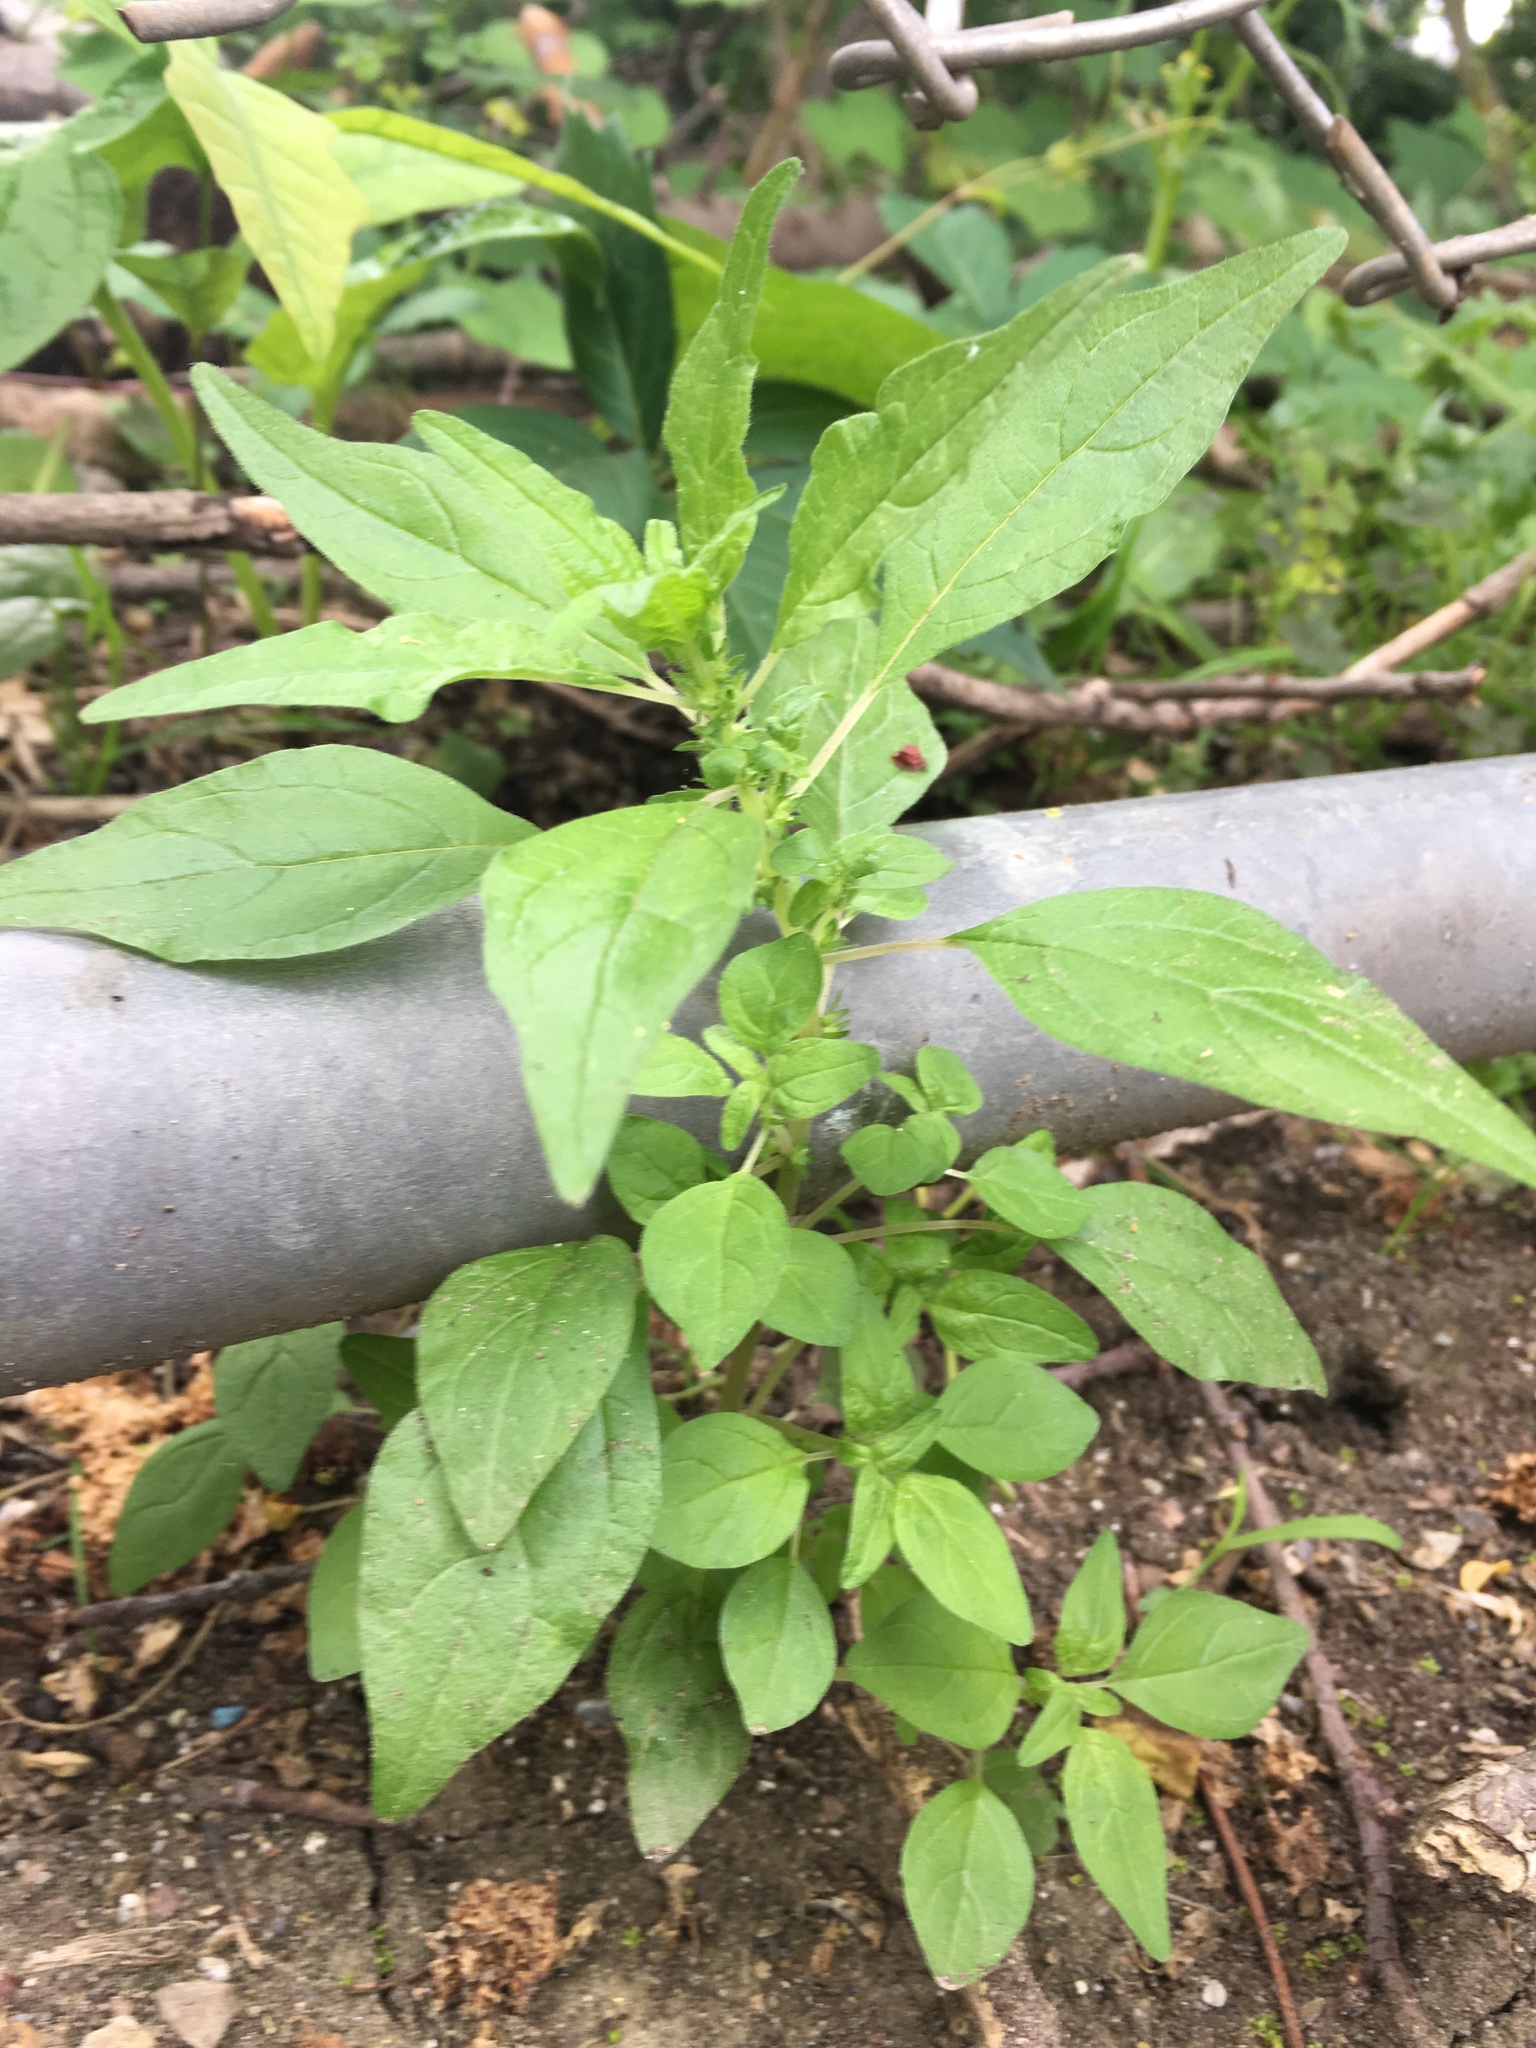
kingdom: Plantae
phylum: Tracheophyta
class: Magnoliopsida
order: Rosales
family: Urticaceae
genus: Parietaria
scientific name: Parietaria pensylvanica
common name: Pennsylvania pellitory
